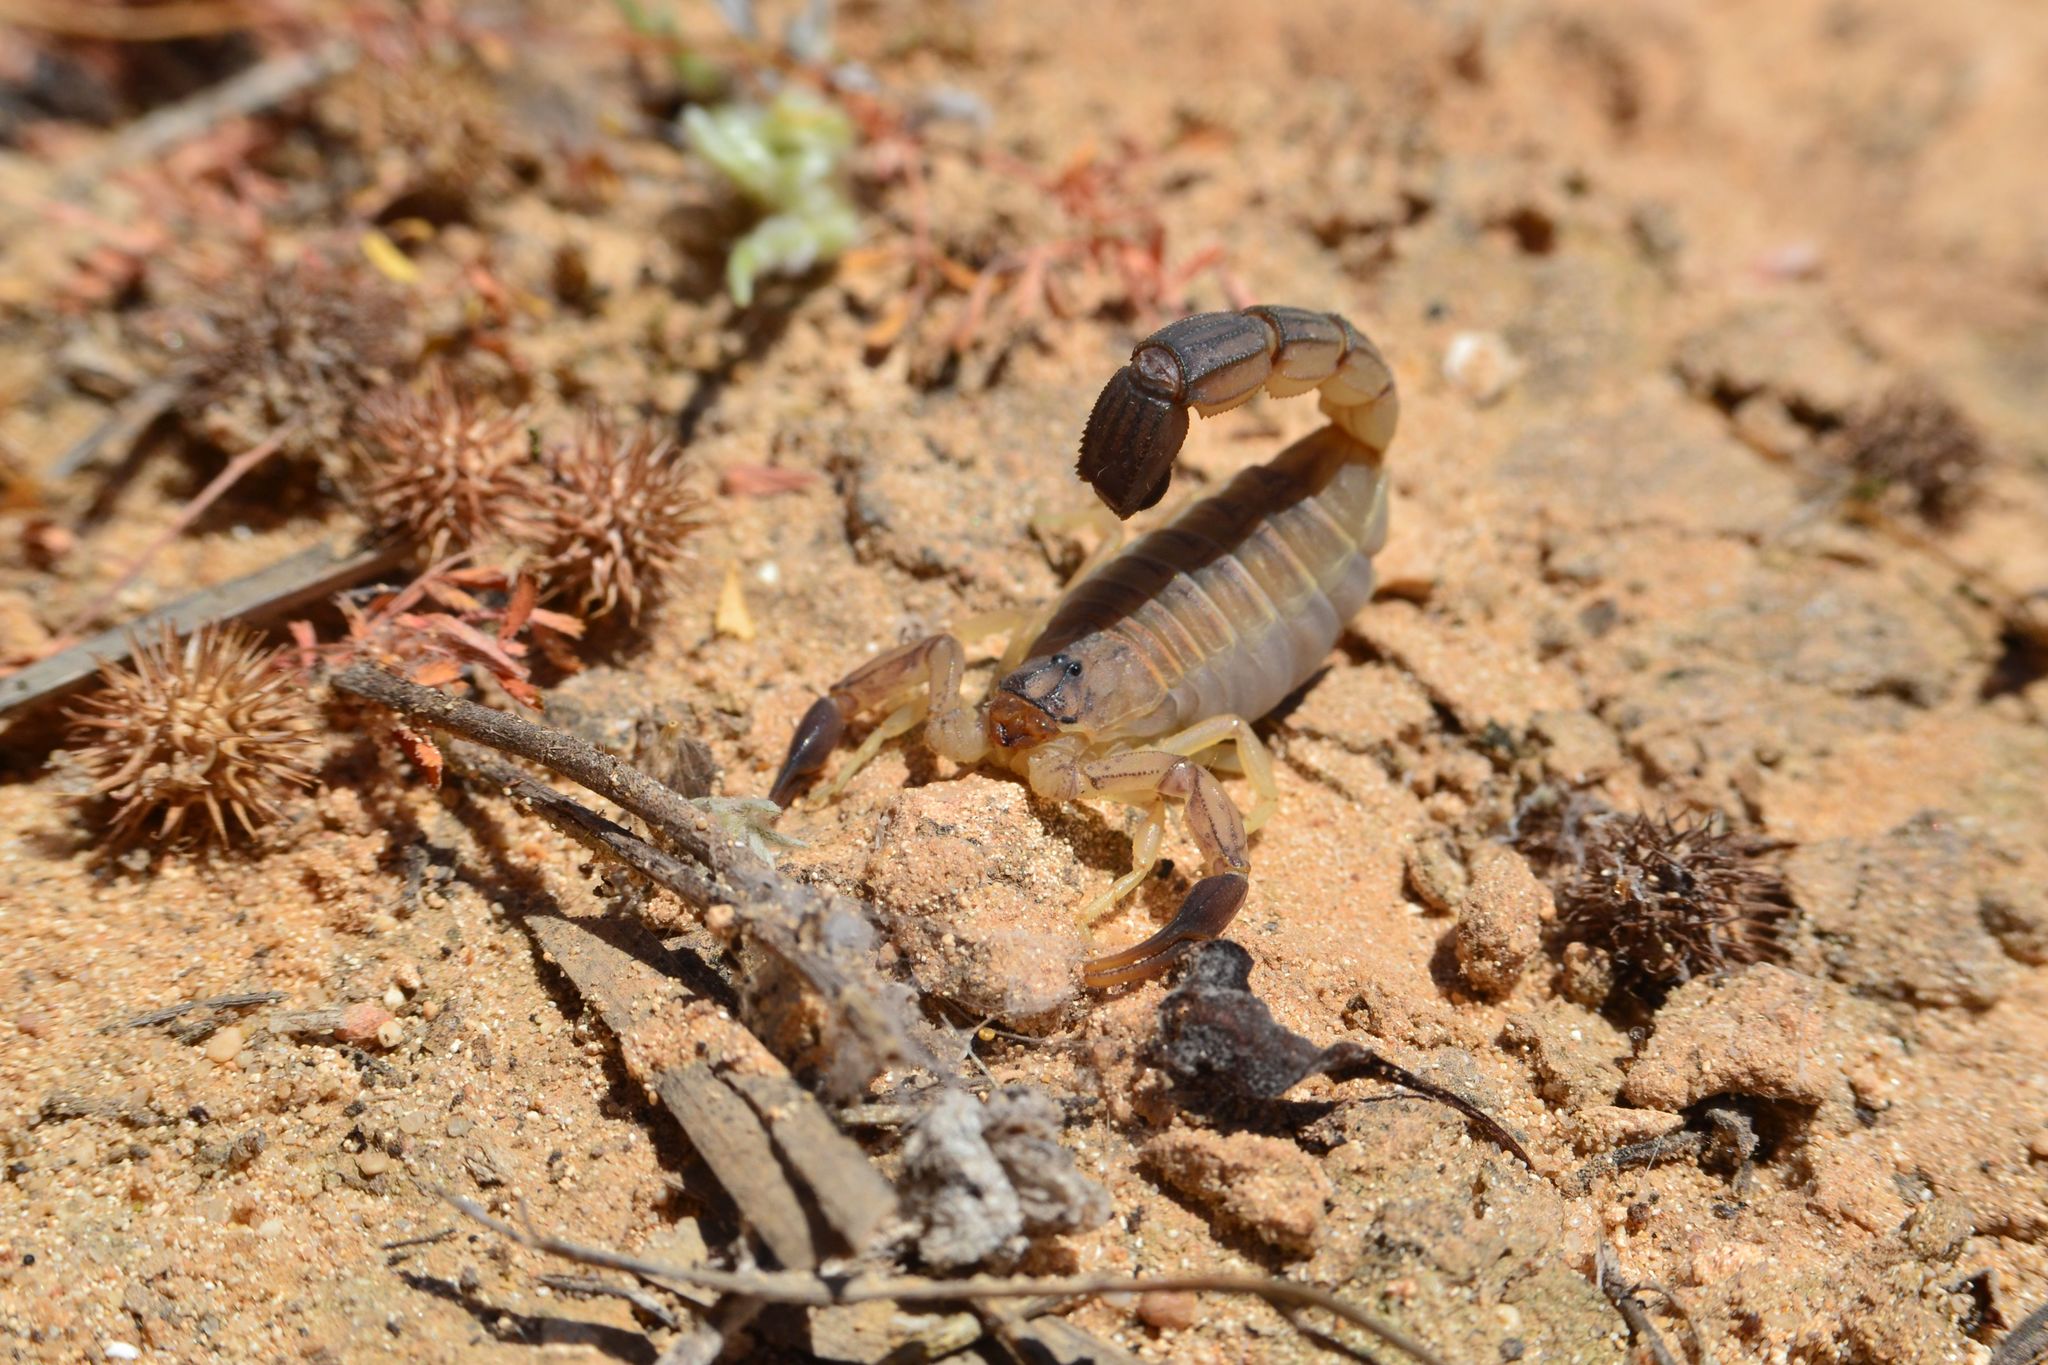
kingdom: Animalia
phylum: Arthropoda
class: Arachnida
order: Scorpiones
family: Buthidae
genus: Androctonus
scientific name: Androctonus australis
